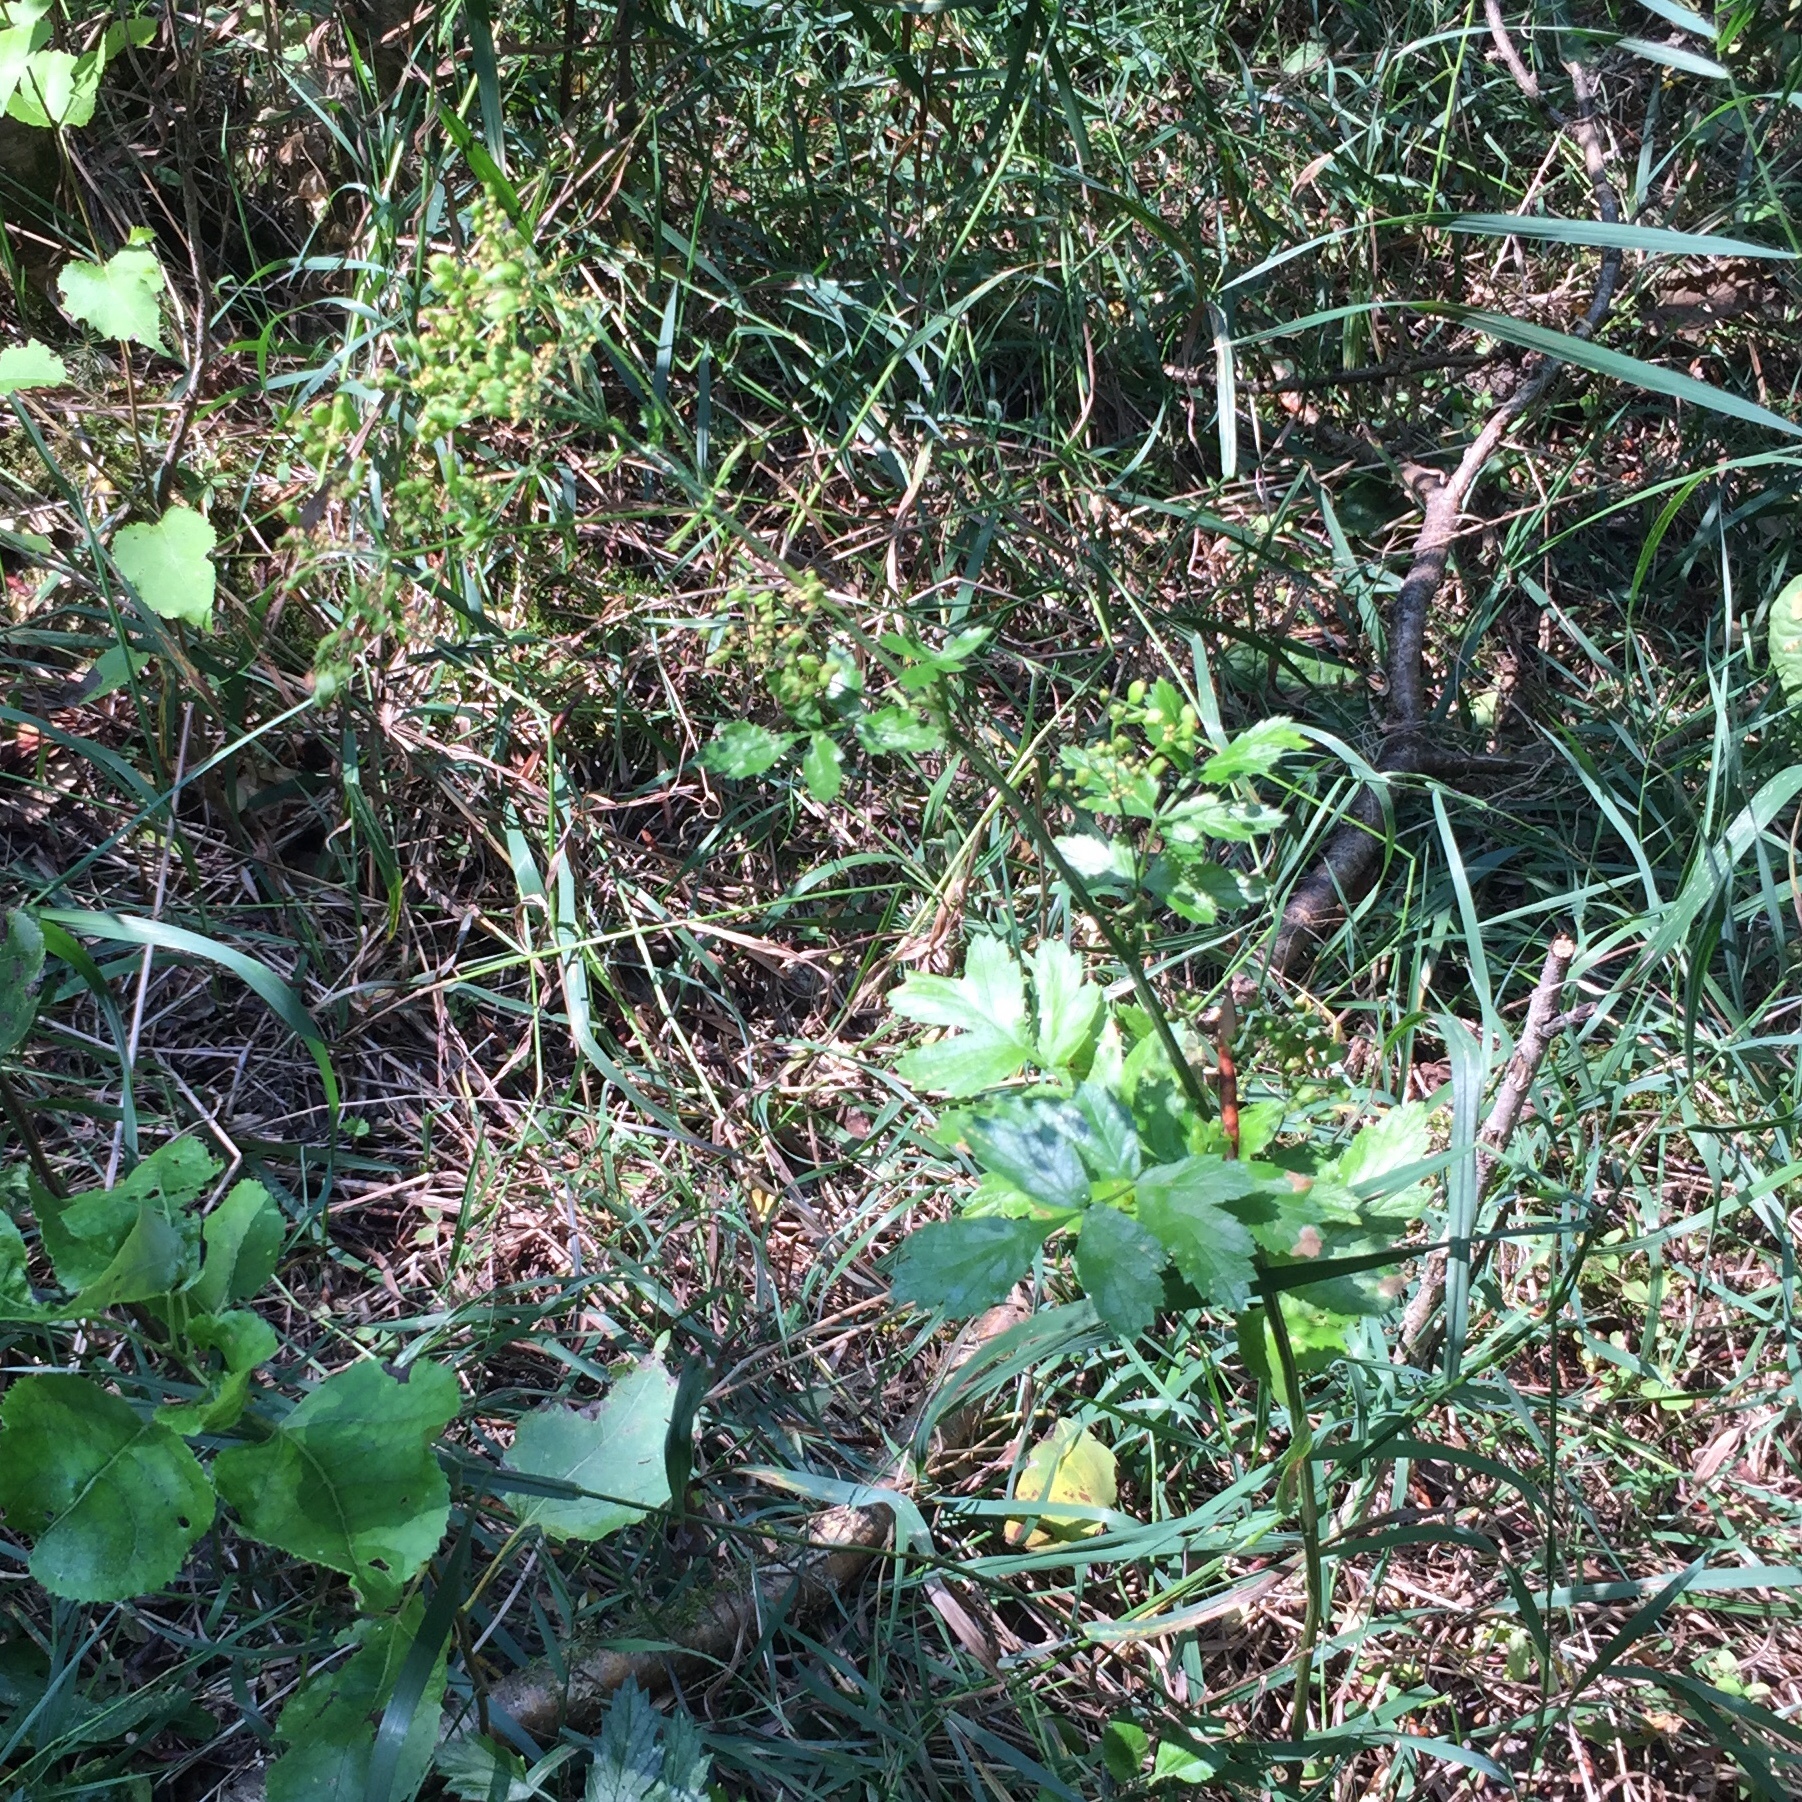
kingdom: Plantae
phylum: Tracheophyta
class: Magnoliopsida
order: Apiales
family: Apiaceae
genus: Pastinaca
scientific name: Pastinaca sativa
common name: Wild parsnip
